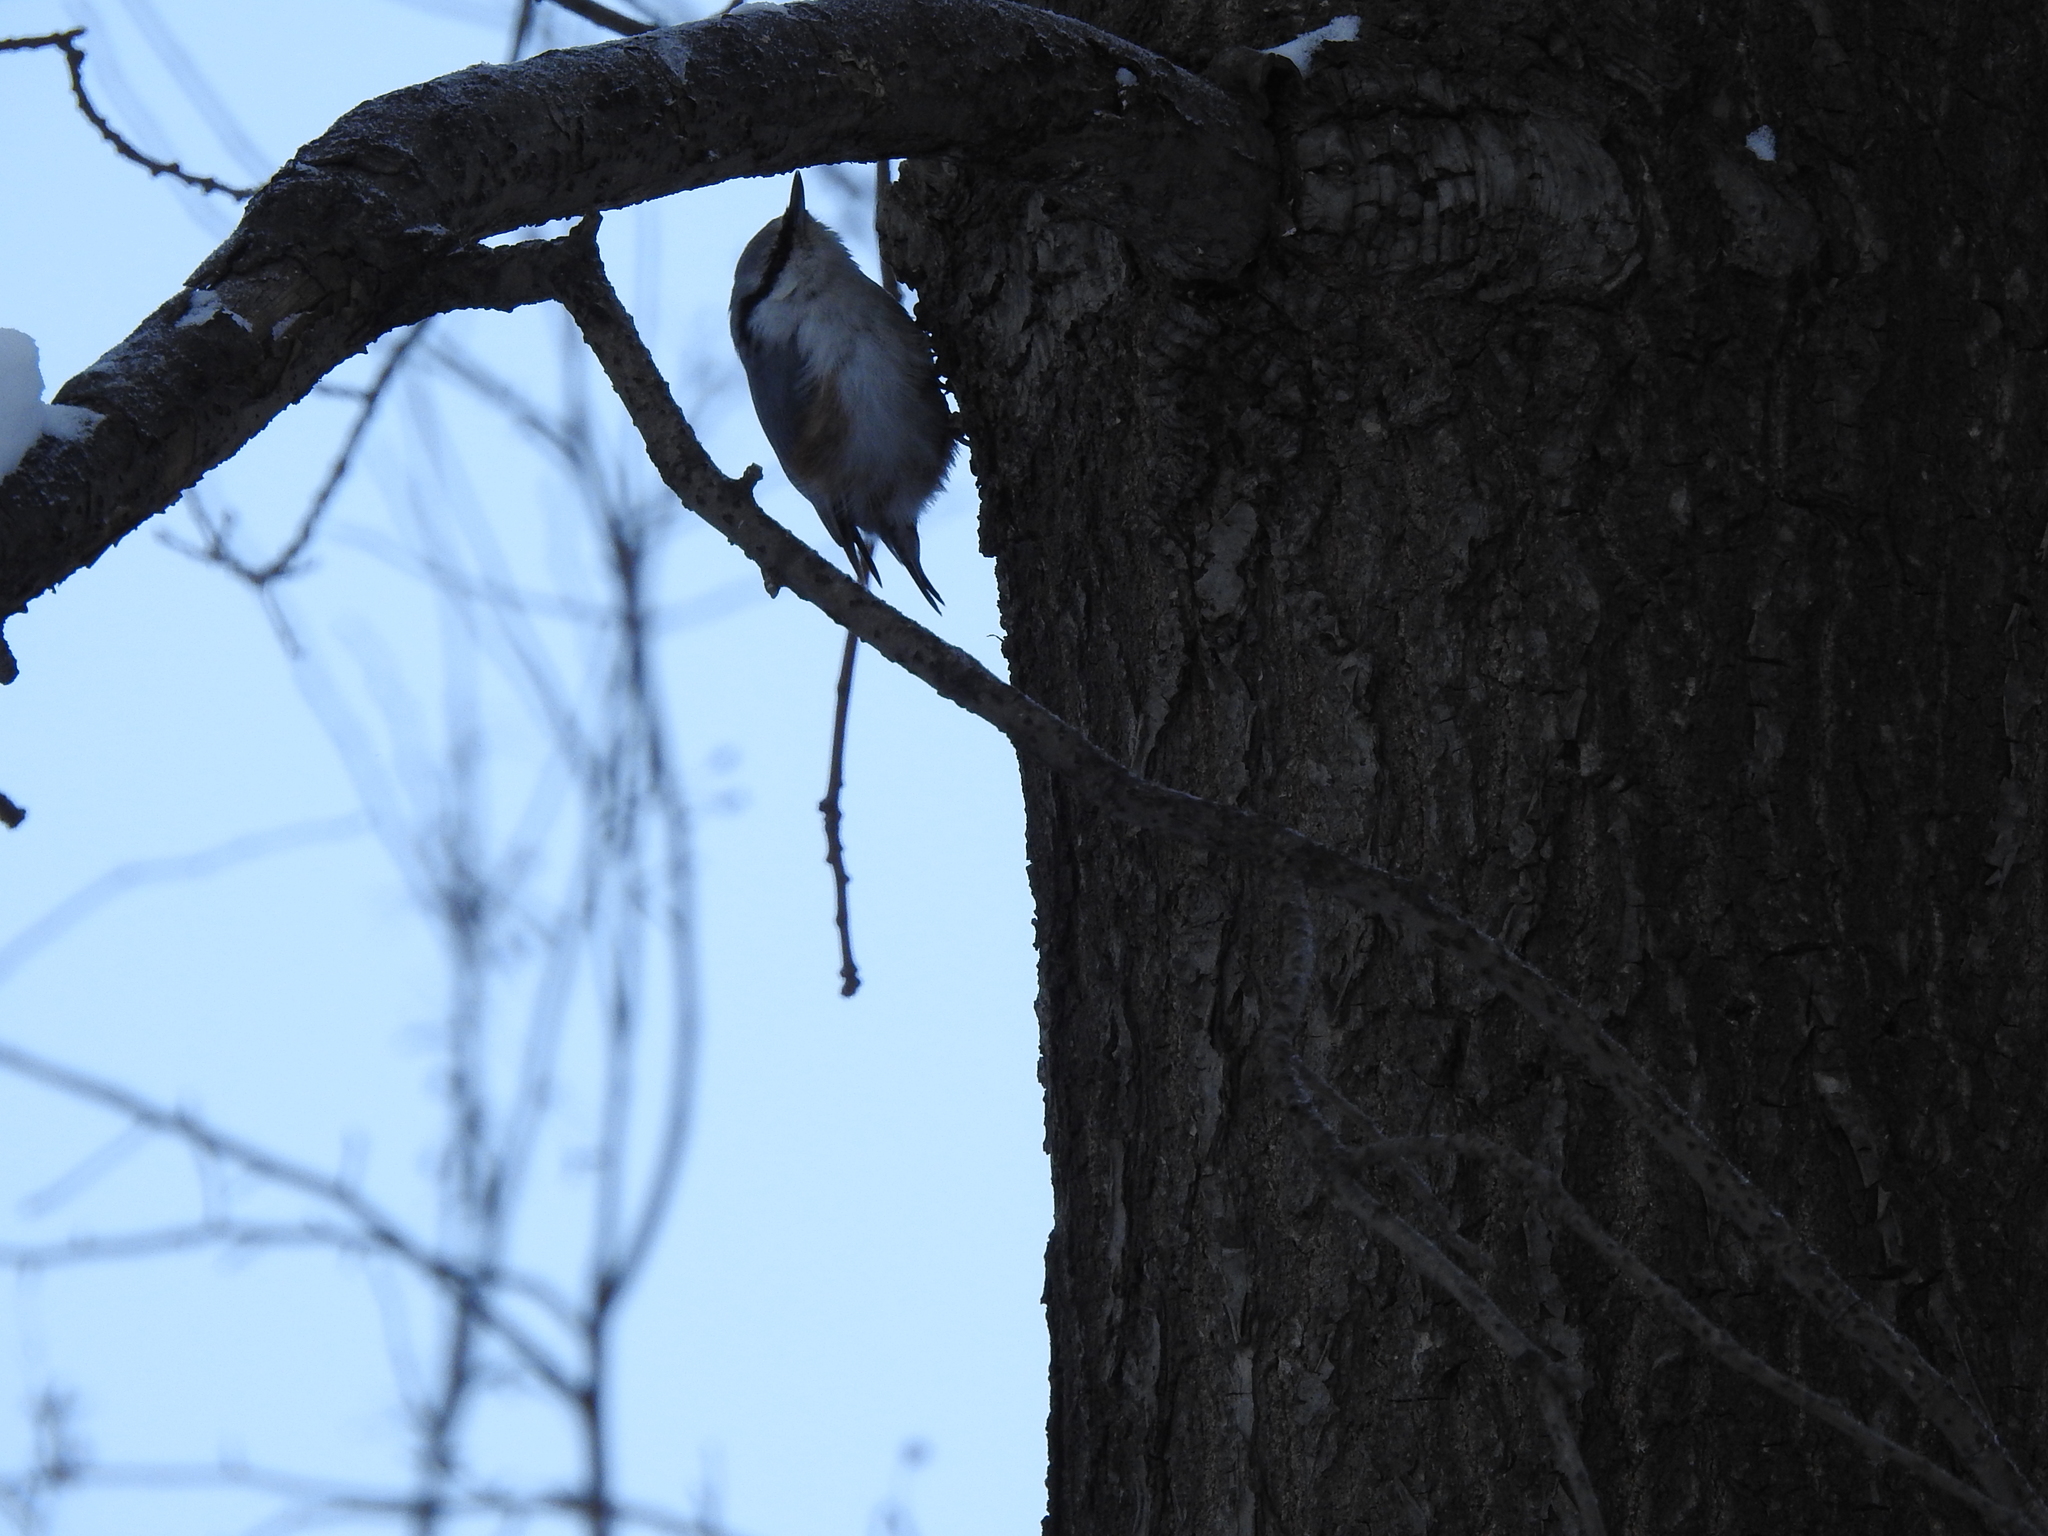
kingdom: Animalia
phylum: Chordata
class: Aves
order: Passeriformes
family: Sittidae
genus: Sitta
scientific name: Sitta europaea
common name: Eurasian nuthatch
